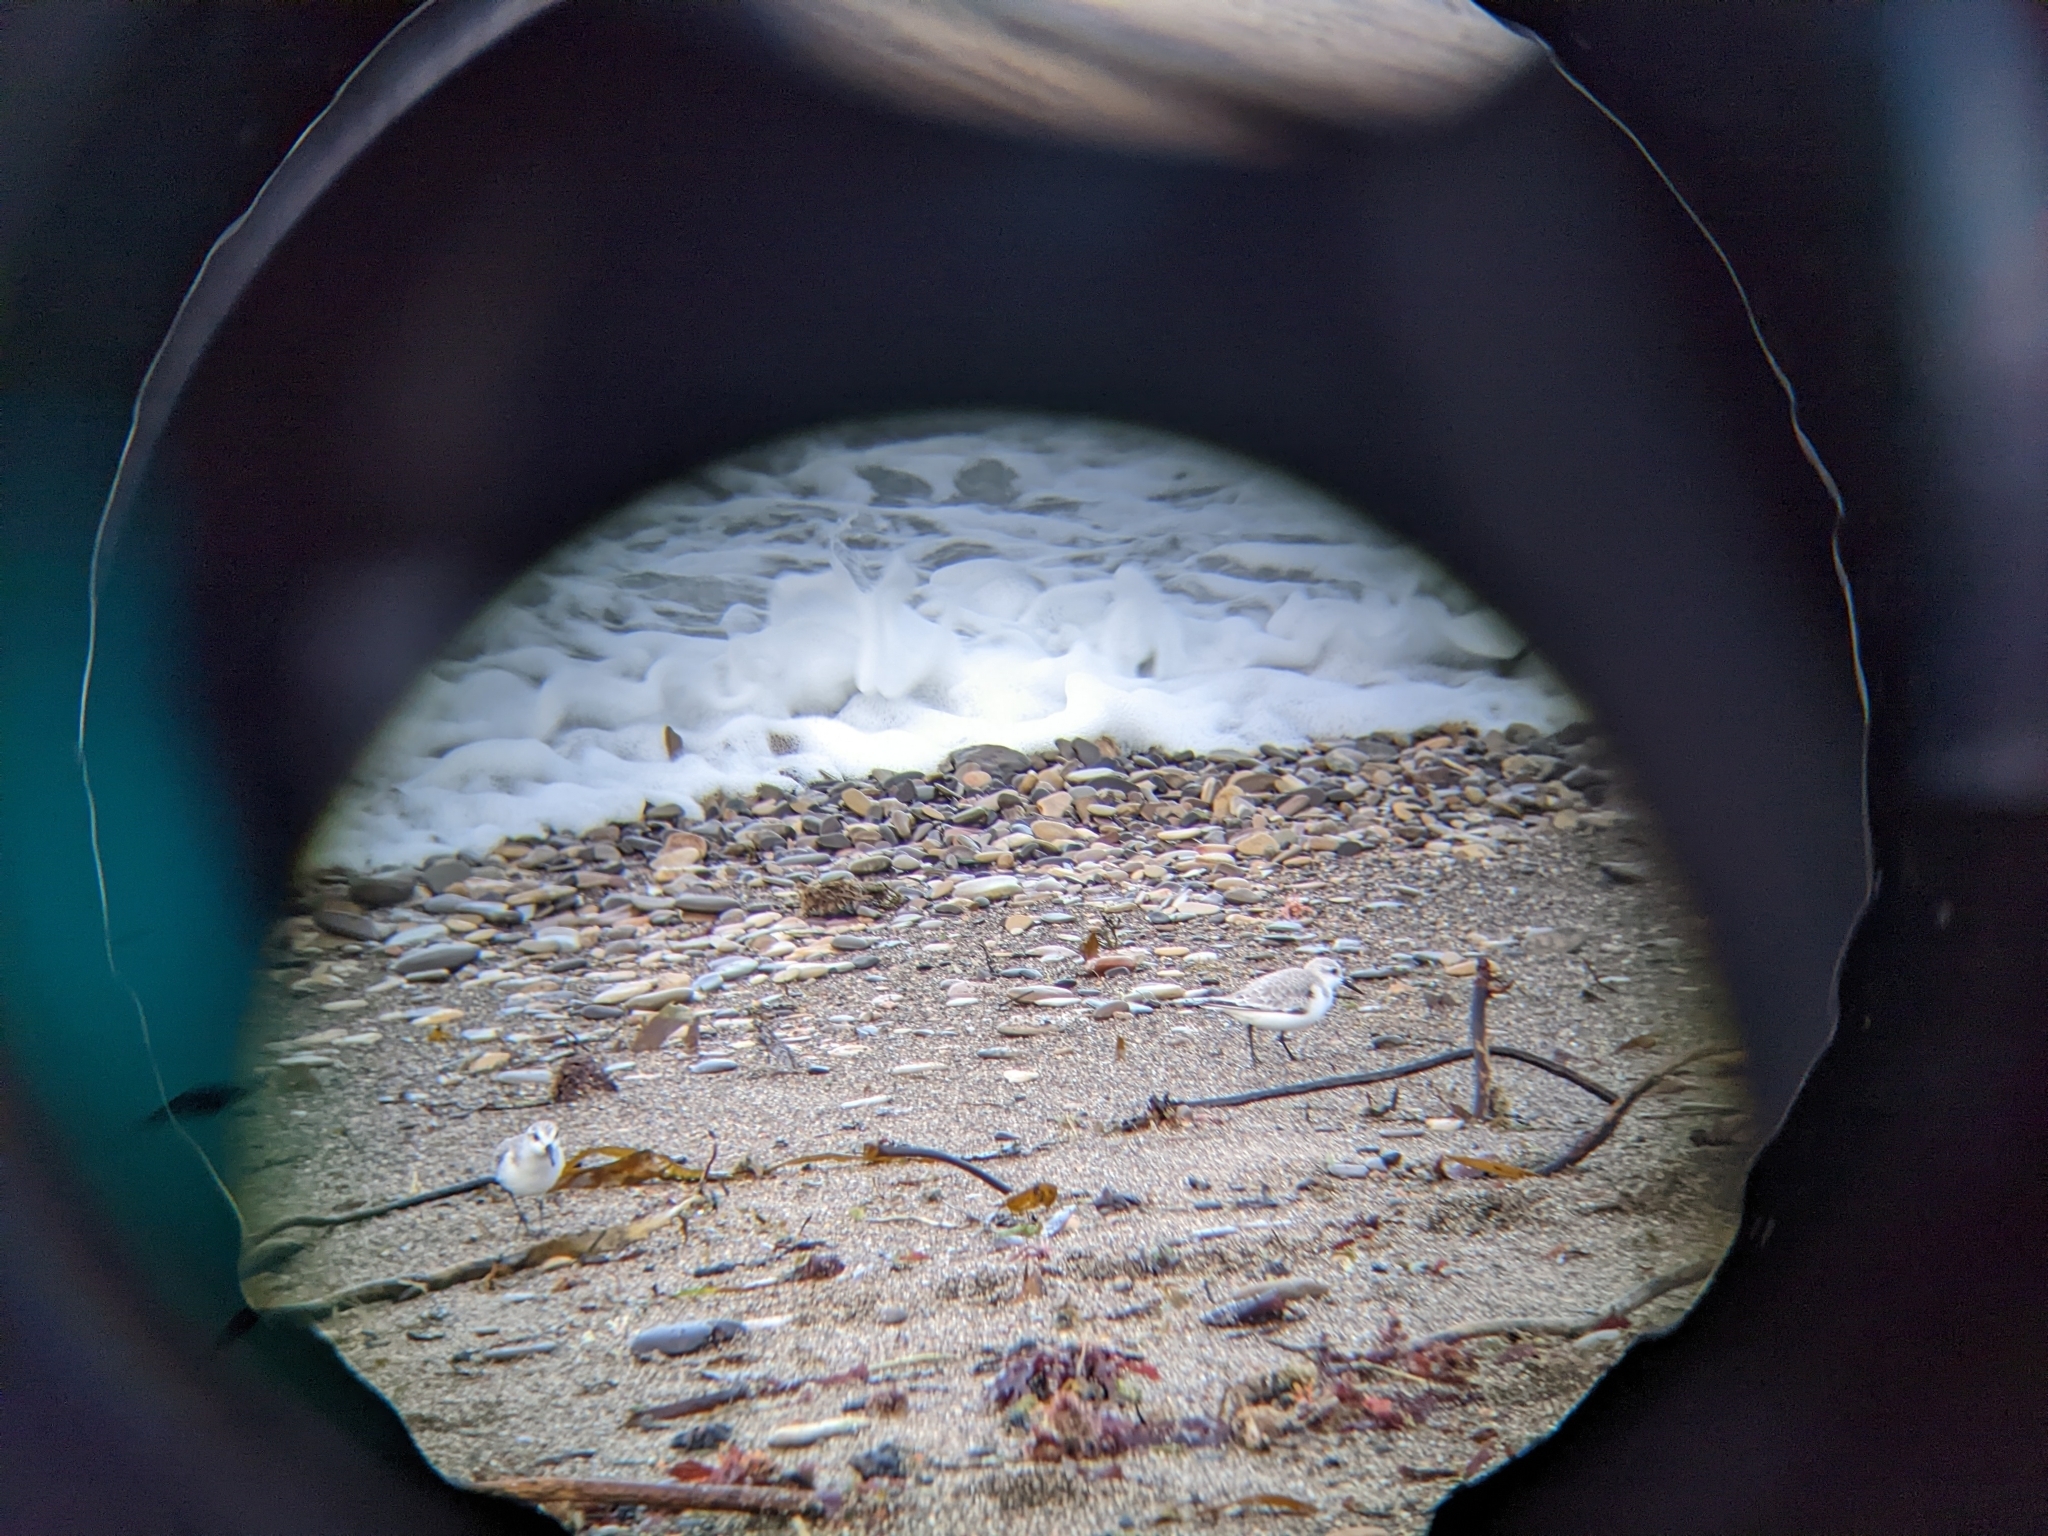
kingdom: Animalia
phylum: Chordata
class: Aves
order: Charadriiformes
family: Scolopacidae
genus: Calidris
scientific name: Calidris alba
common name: Sanderling
